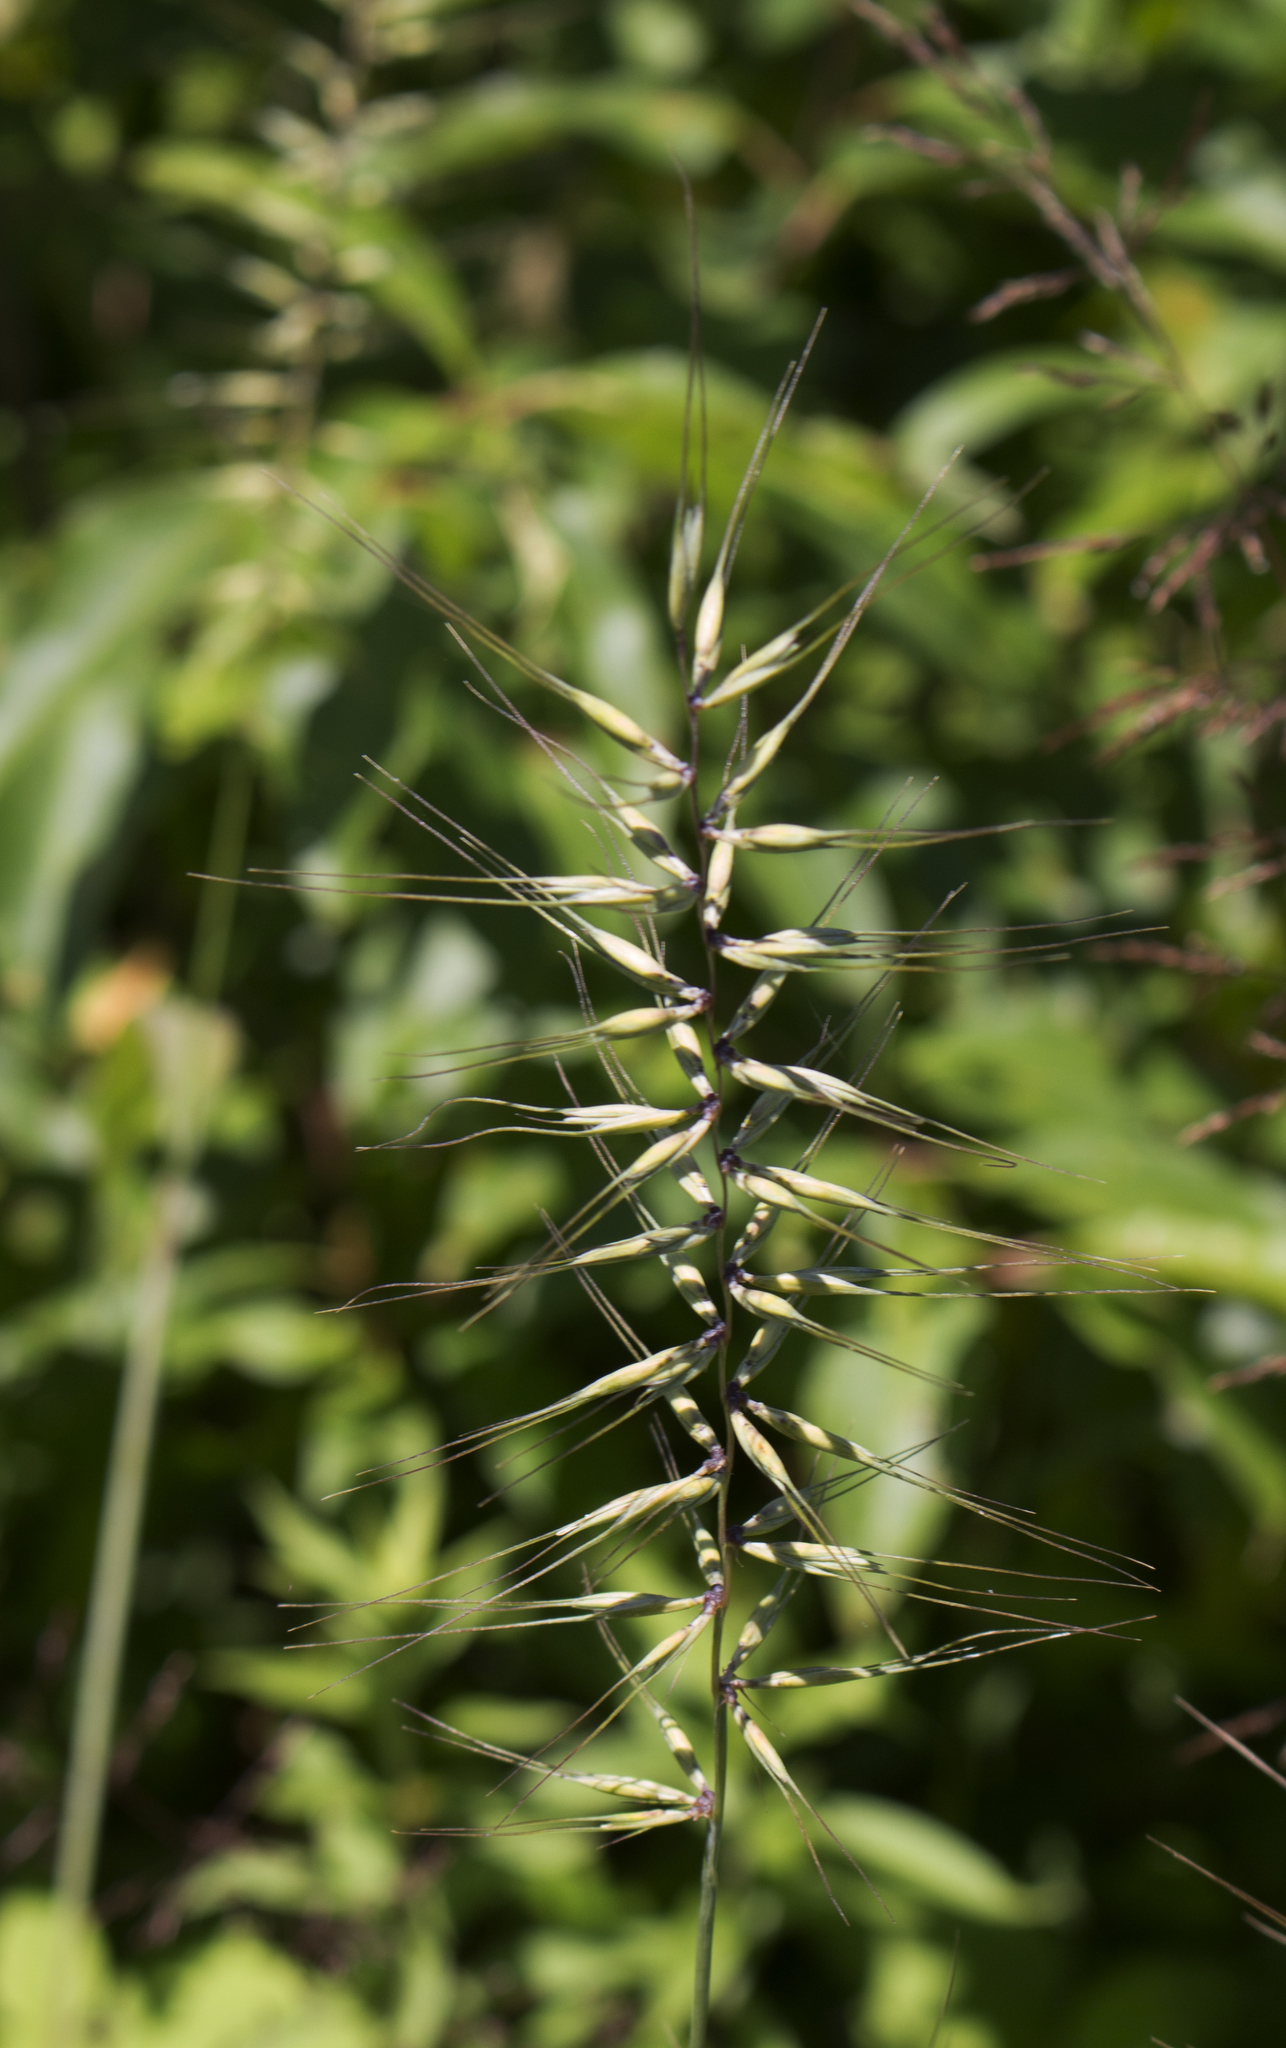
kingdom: Plantae
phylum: Tracheophyta
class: Liliopsida
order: Poales
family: Poaceae
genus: Elymus
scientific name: Elymus hystrix
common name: Bottlebrush grass
